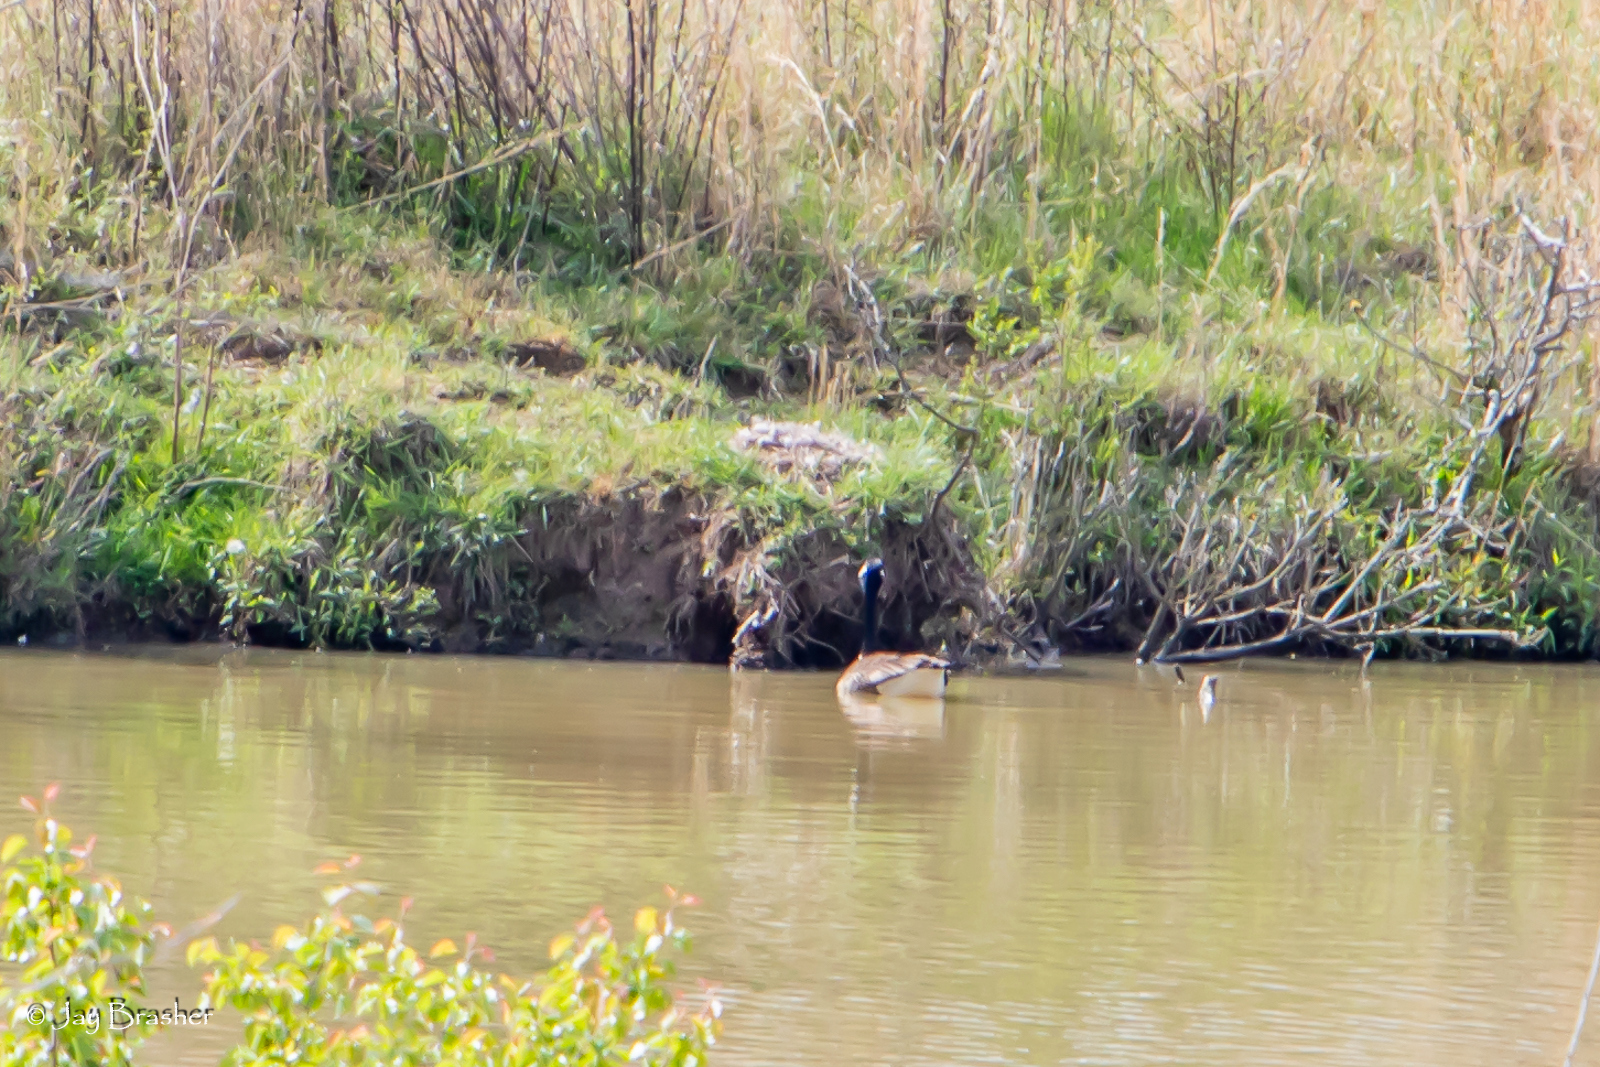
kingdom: Animalia
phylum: Chordata
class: Aves
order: Anseriformes
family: Anatidae
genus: Branta
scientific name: Branta canadensis
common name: Canada goose
